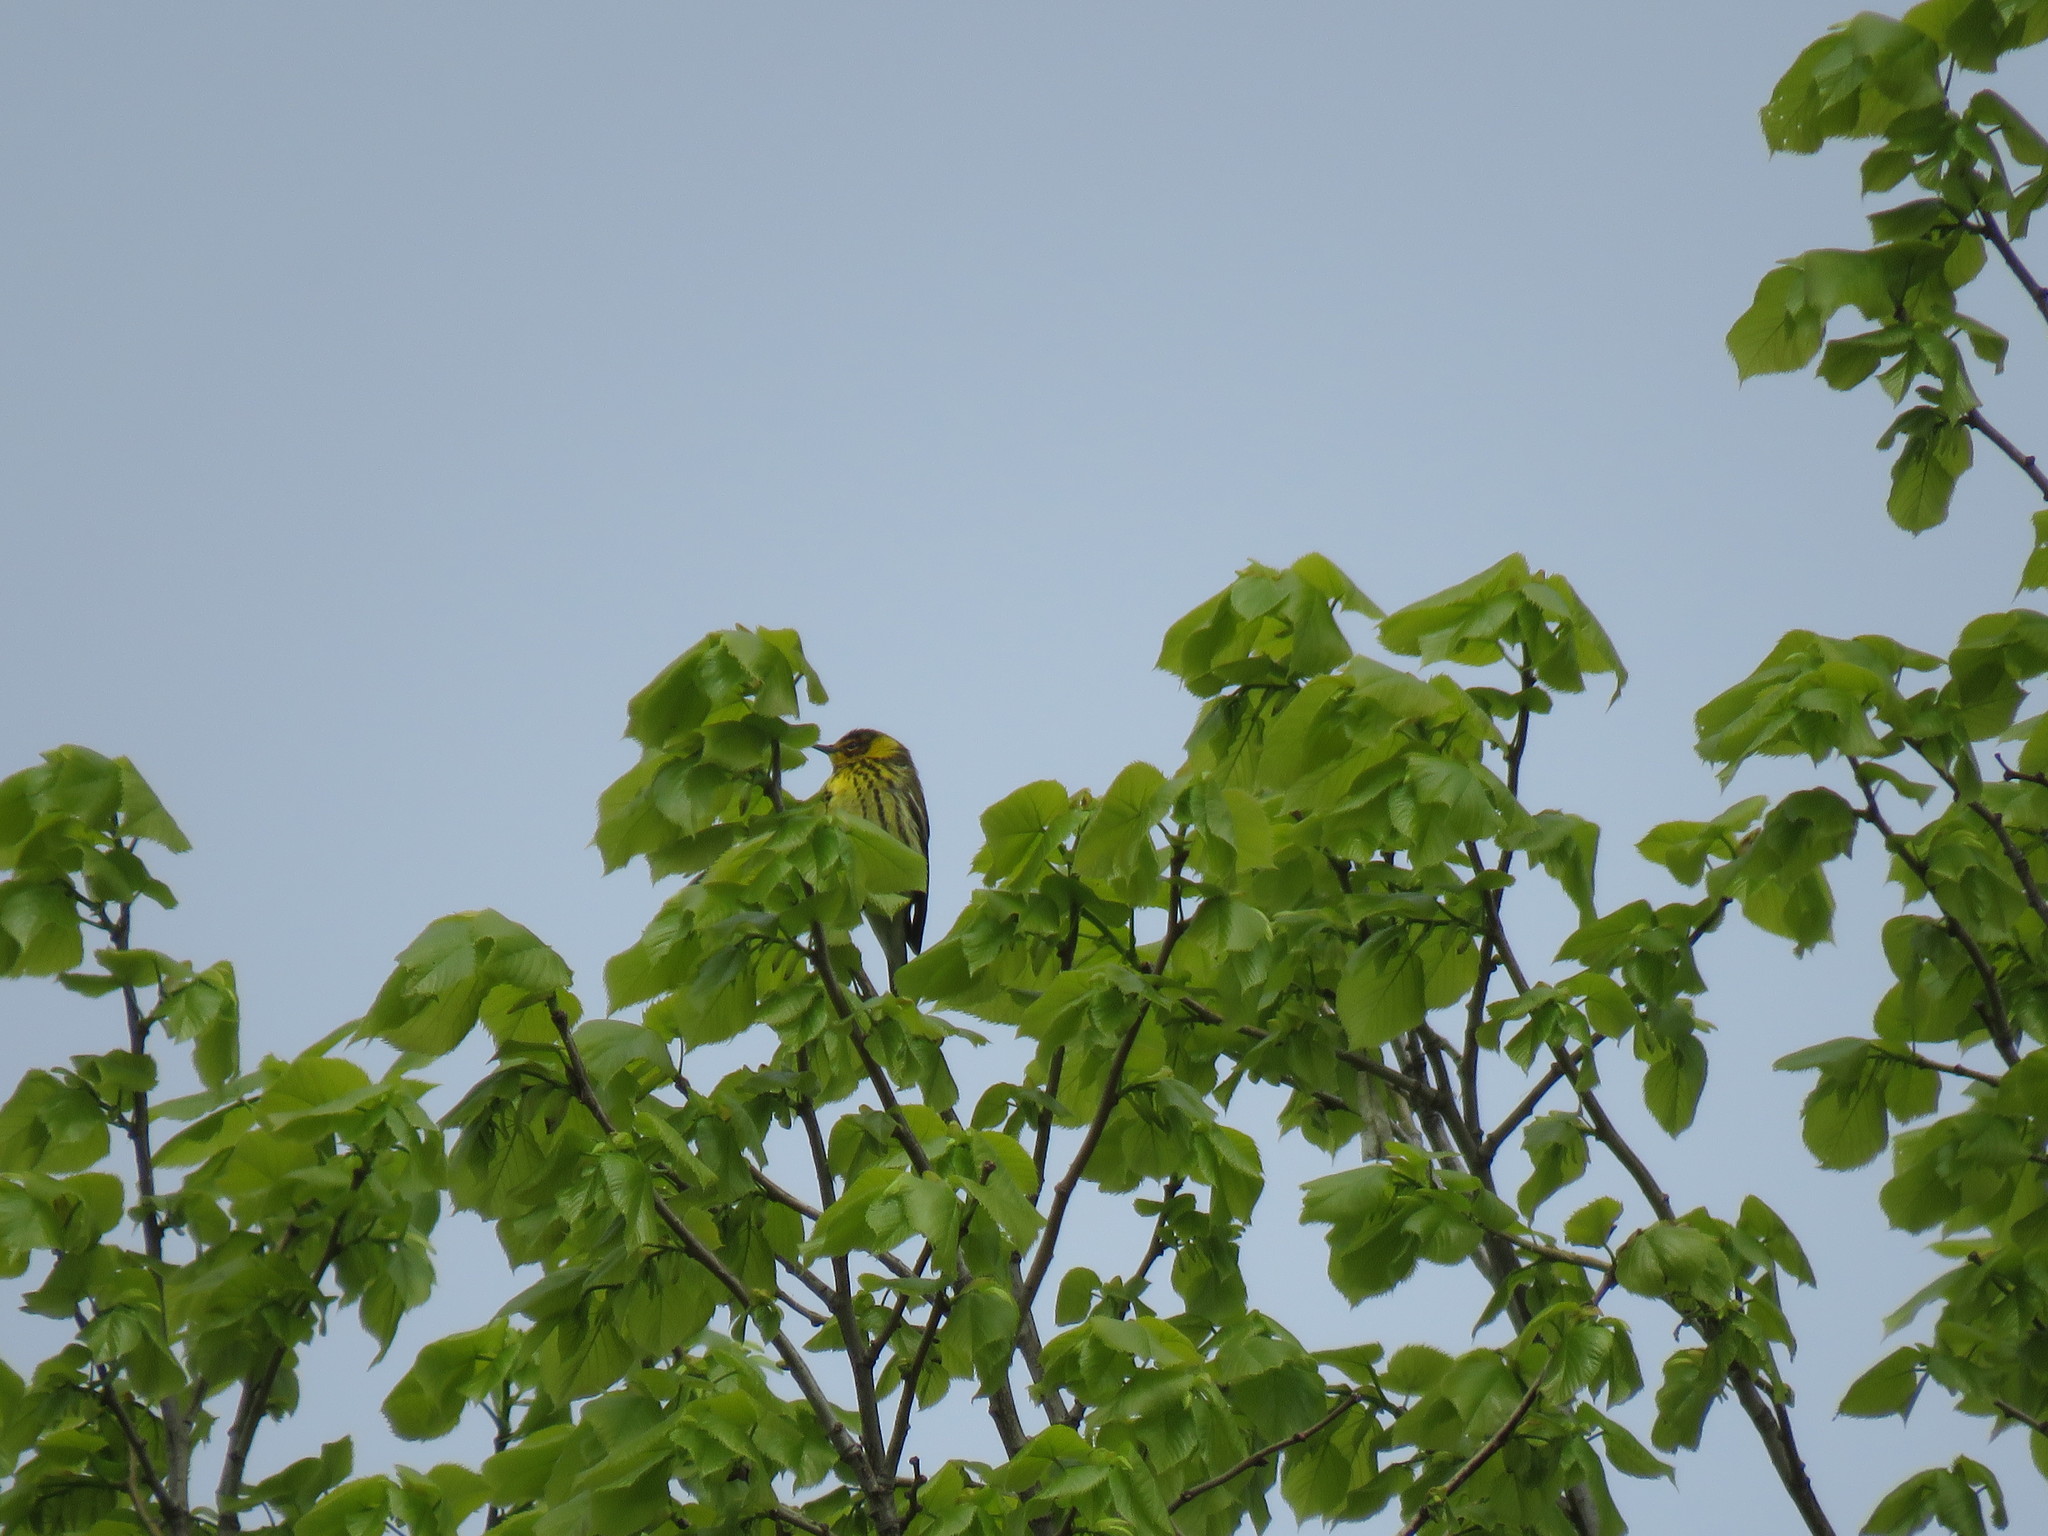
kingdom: Animalia
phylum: Chordata
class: Aves
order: Passeriformes
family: Parulidae
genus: Setophaga
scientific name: Setophaga tigrina
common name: Cape may warbler
